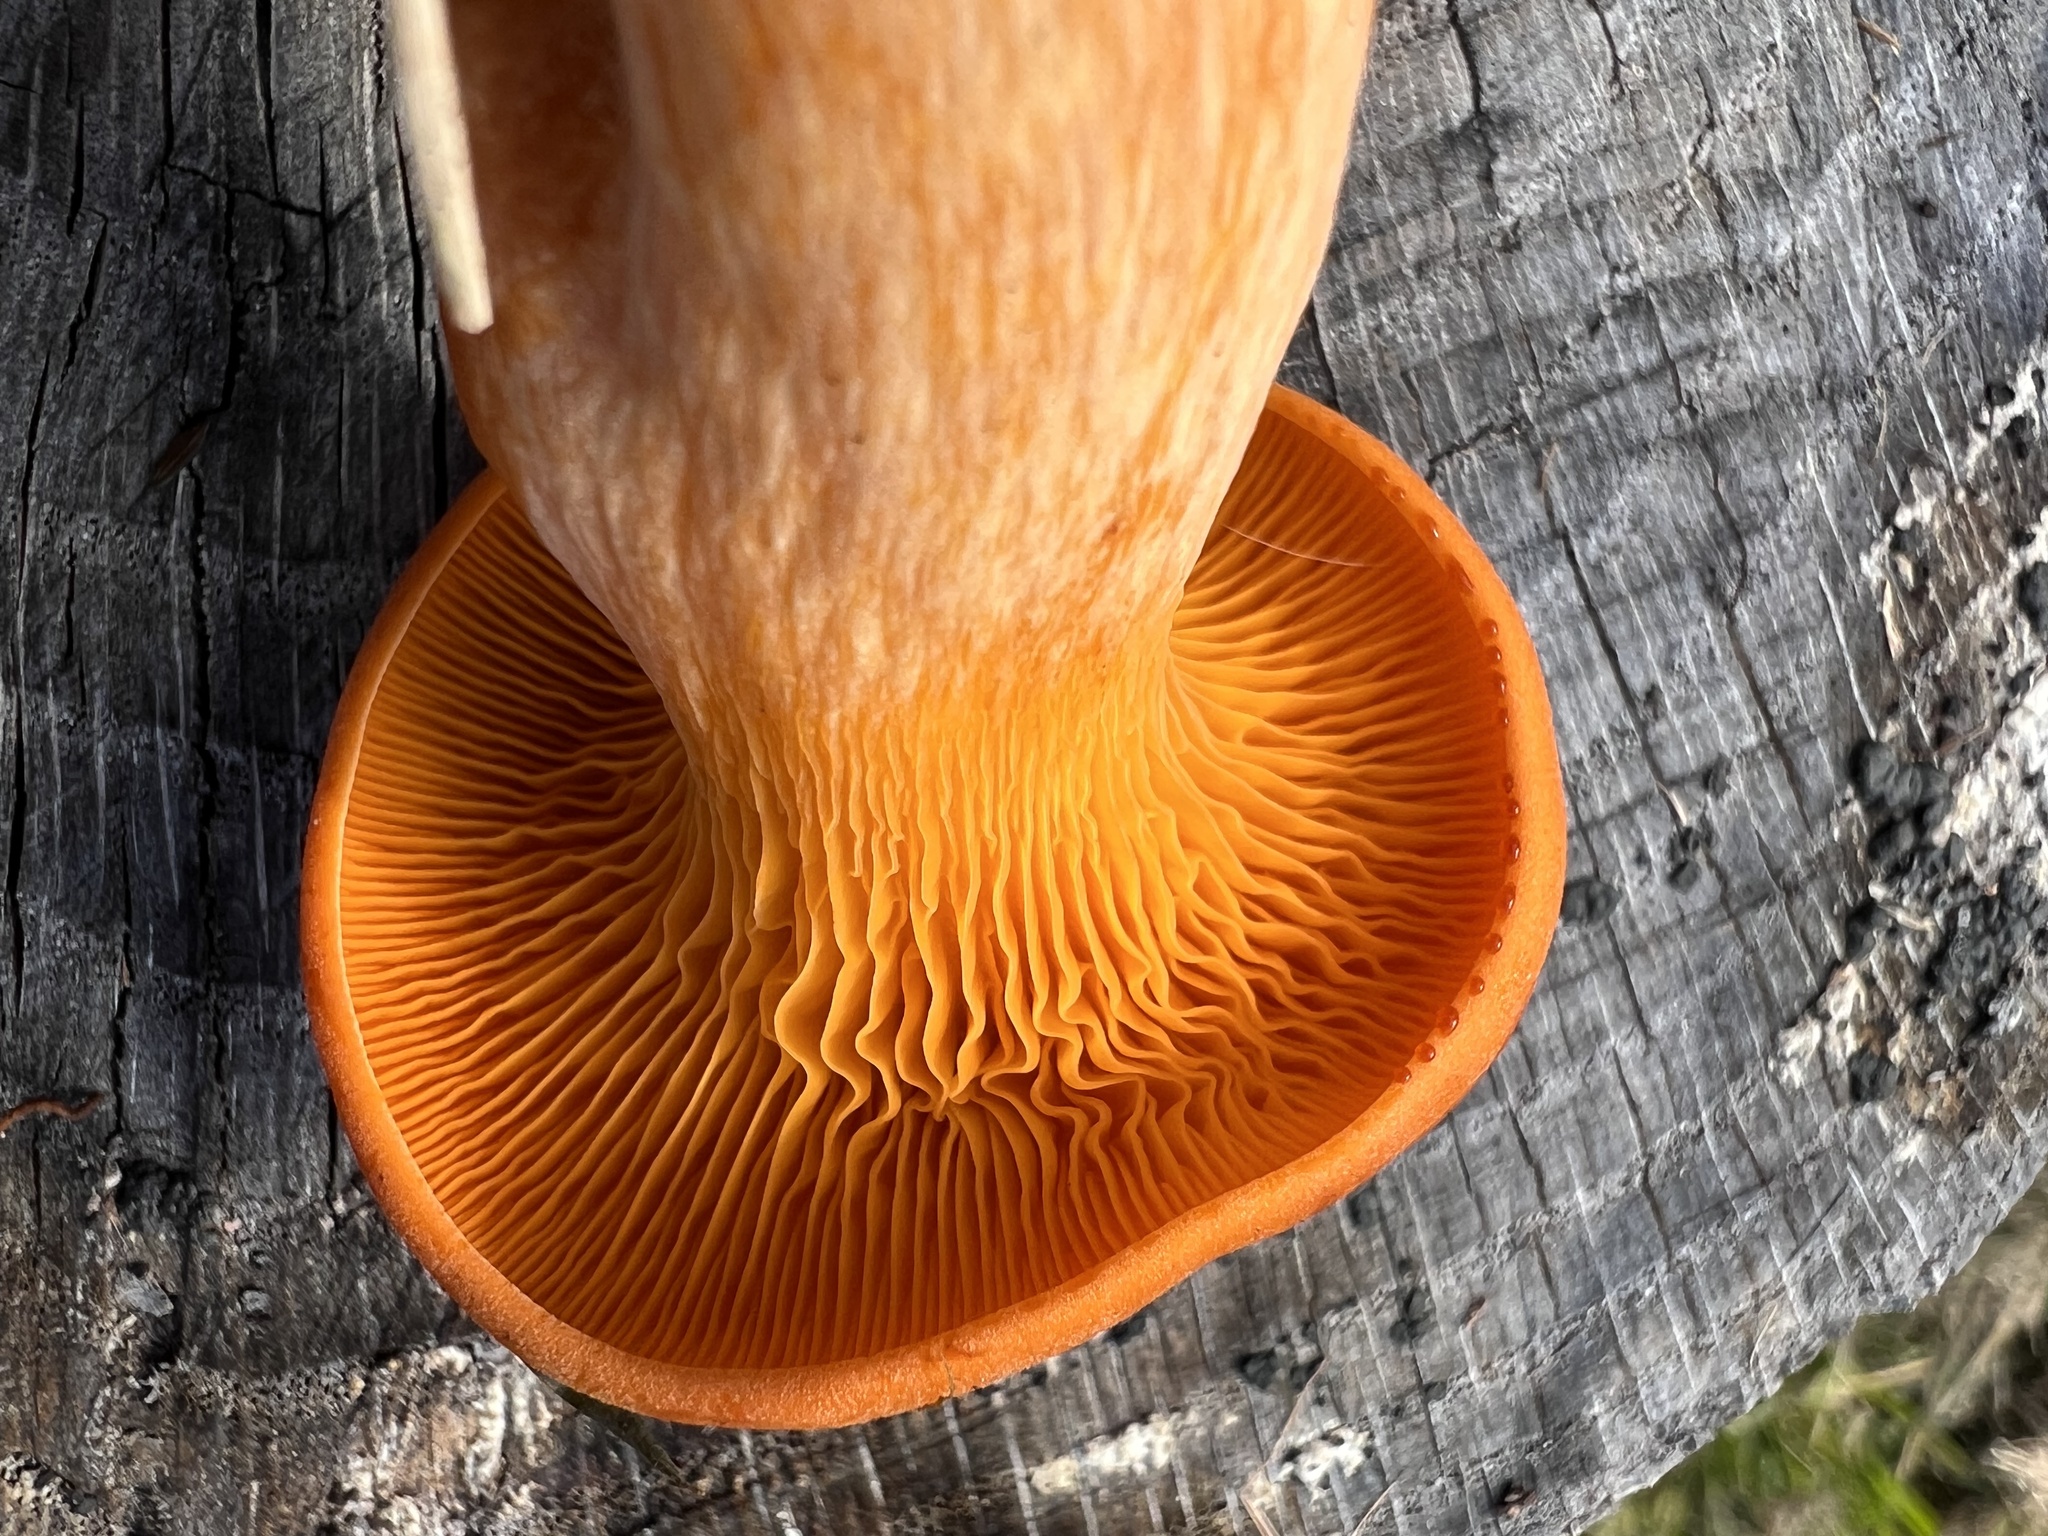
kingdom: Fungi
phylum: Basidiomycota
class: Agaricomycetes
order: Agaricales
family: Omphalotaceae
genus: Omphalotus
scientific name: Omphalotus illudens
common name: Jack o lantern
